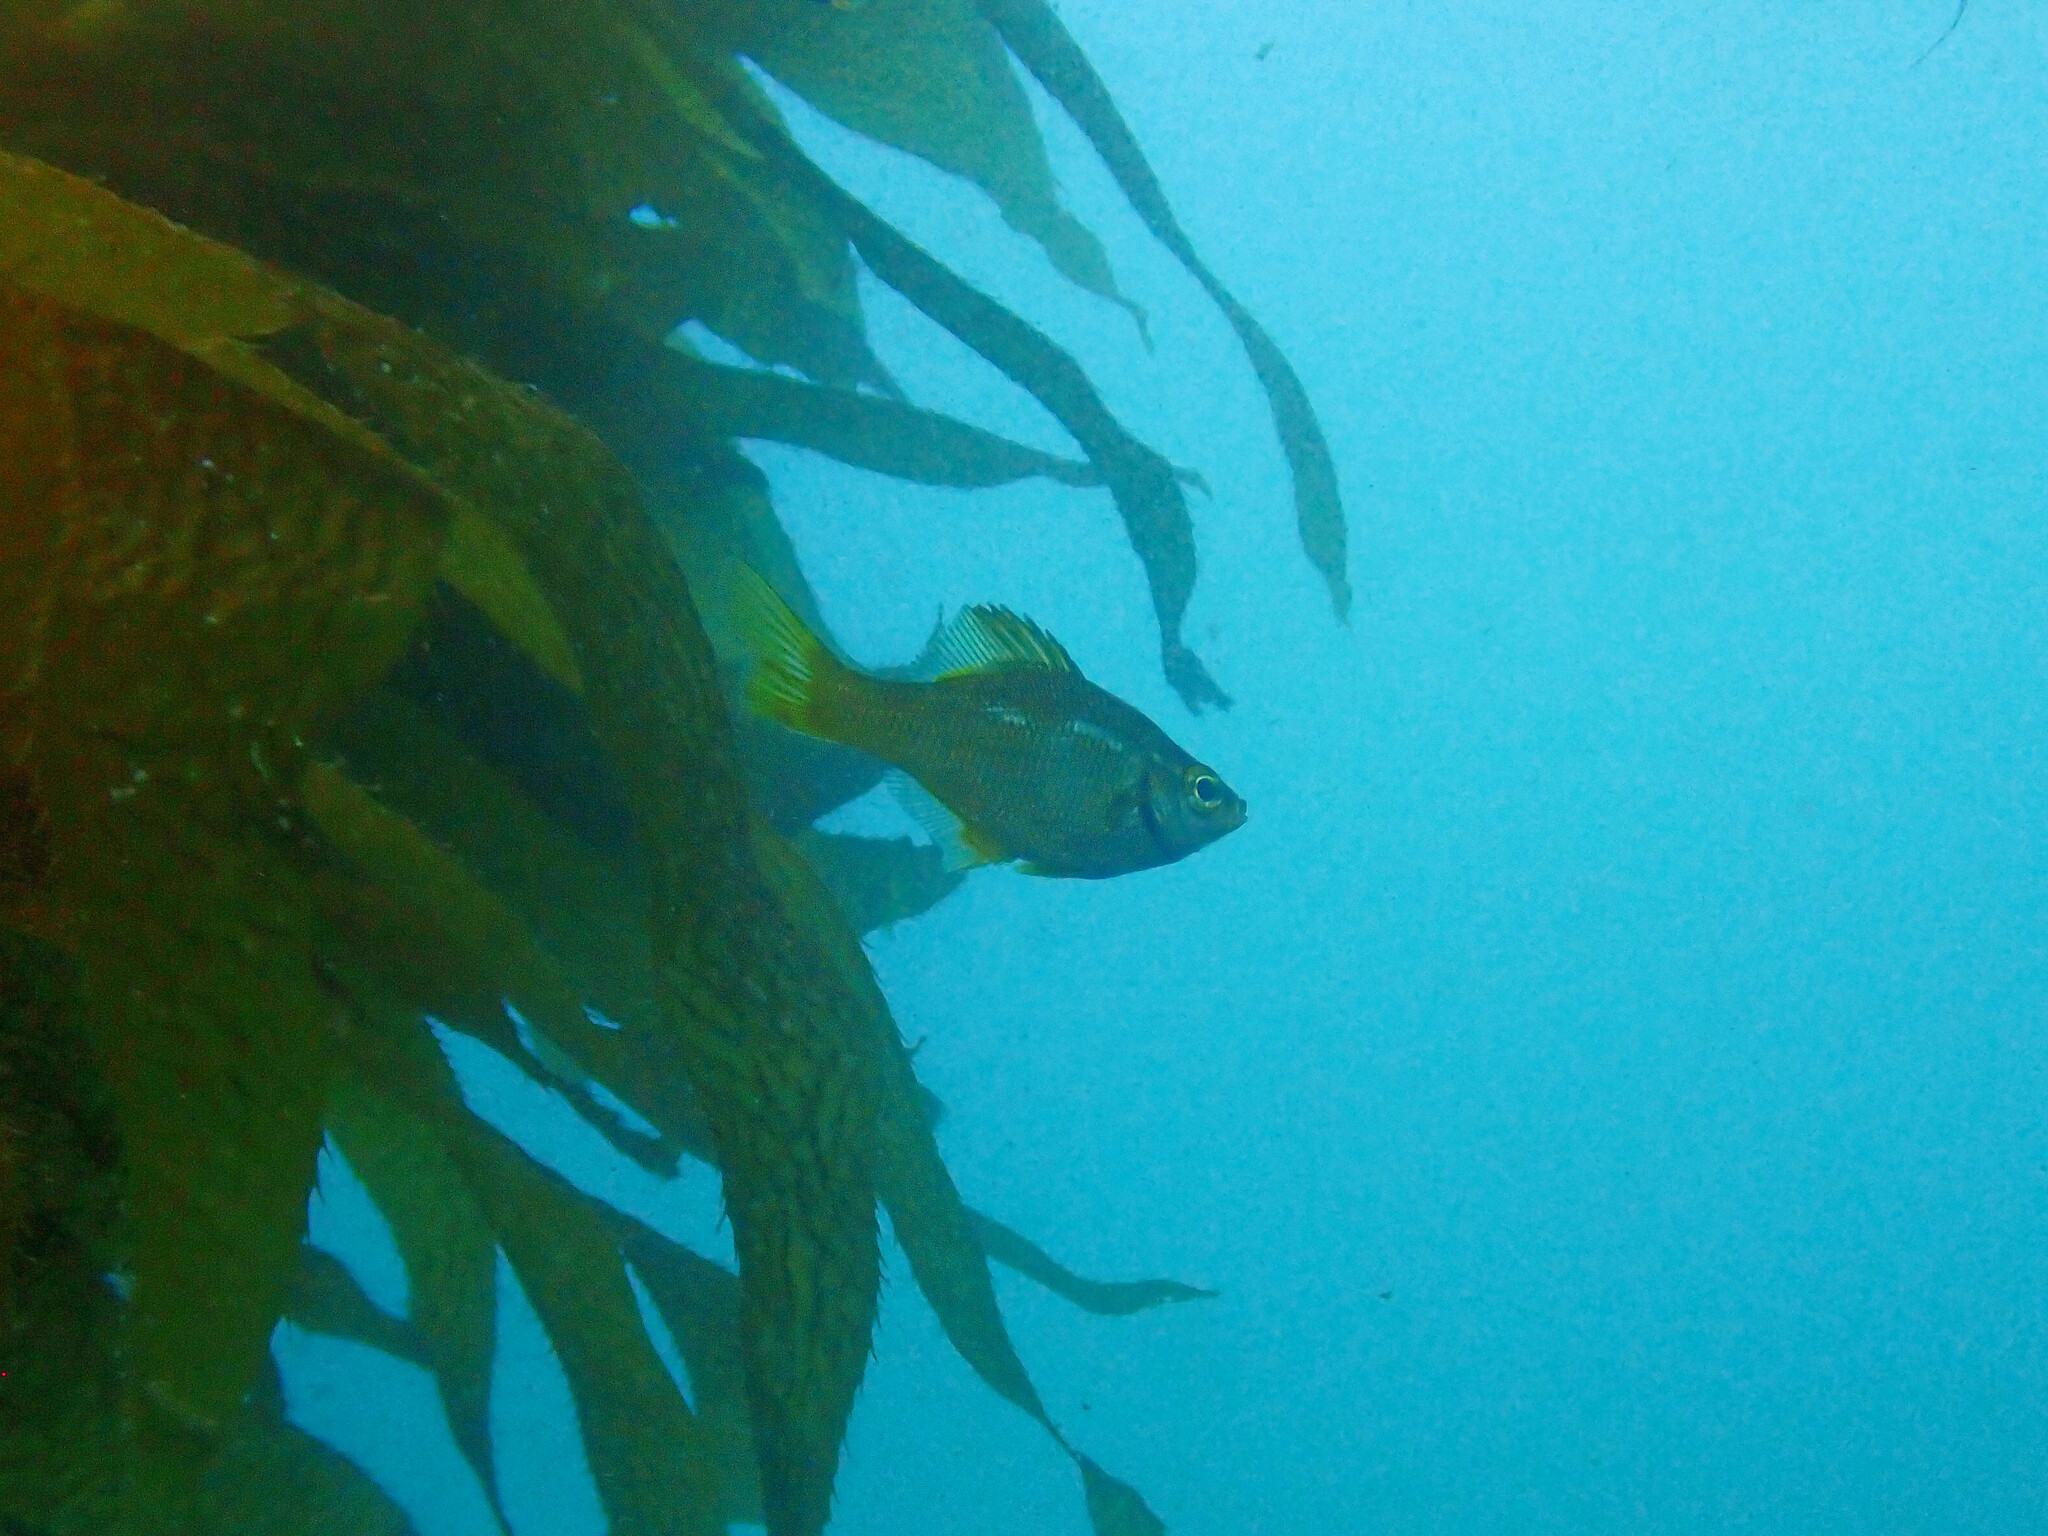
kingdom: Animalia
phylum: Chordata
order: Perciformes
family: Embiotocidae
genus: Brachyistius
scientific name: Brachyistius frenatus
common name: Kelp perch
